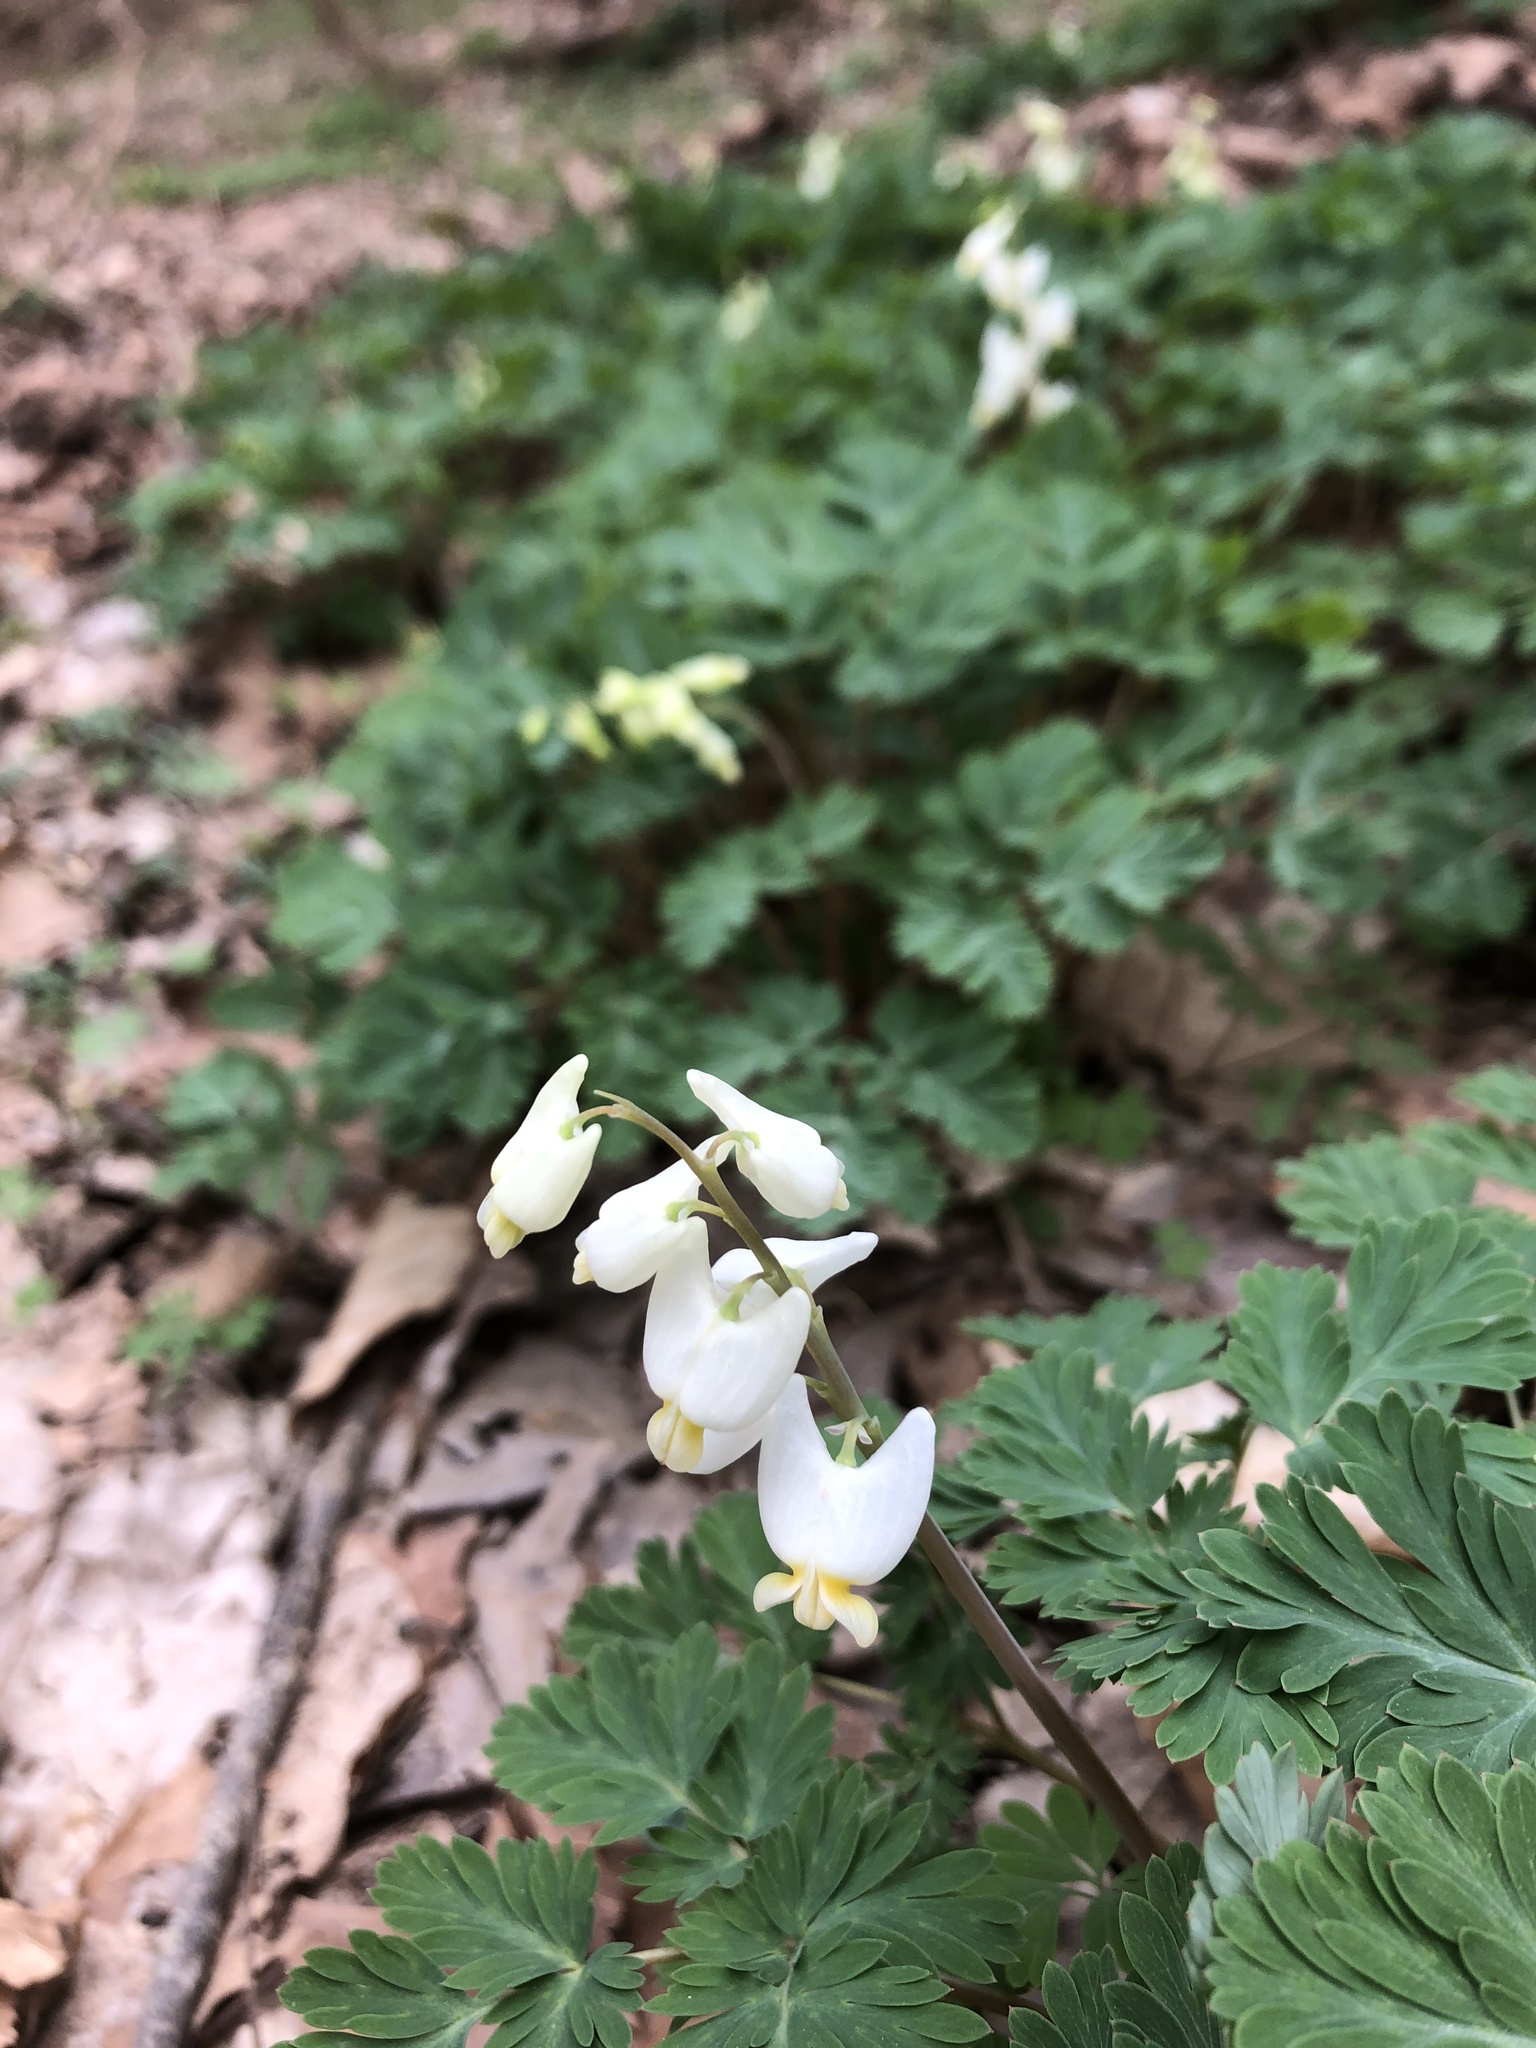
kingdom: Plantae
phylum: Tracheophyta
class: Magnoliopsida
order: Ranunculales
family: Papaveraceae
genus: Dicentra
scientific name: Dicentra cucullaria
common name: Dutchman's breeches
